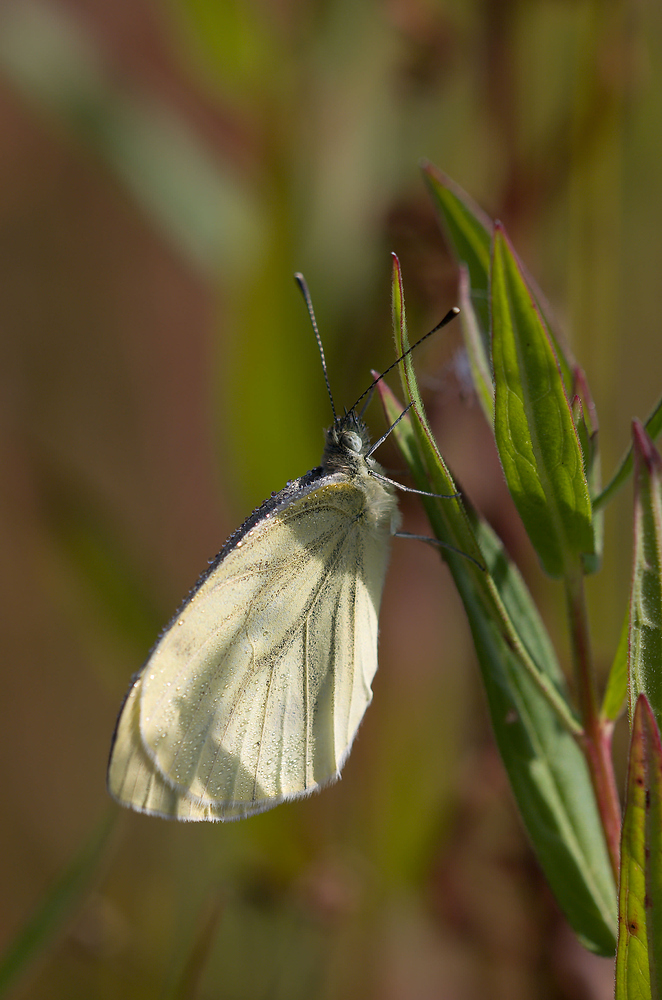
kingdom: Animalia
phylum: Arthropoda
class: Insecta
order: Lepidoptera
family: Pieridae
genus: Pieris
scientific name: Pieris napi
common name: Green-veined white
